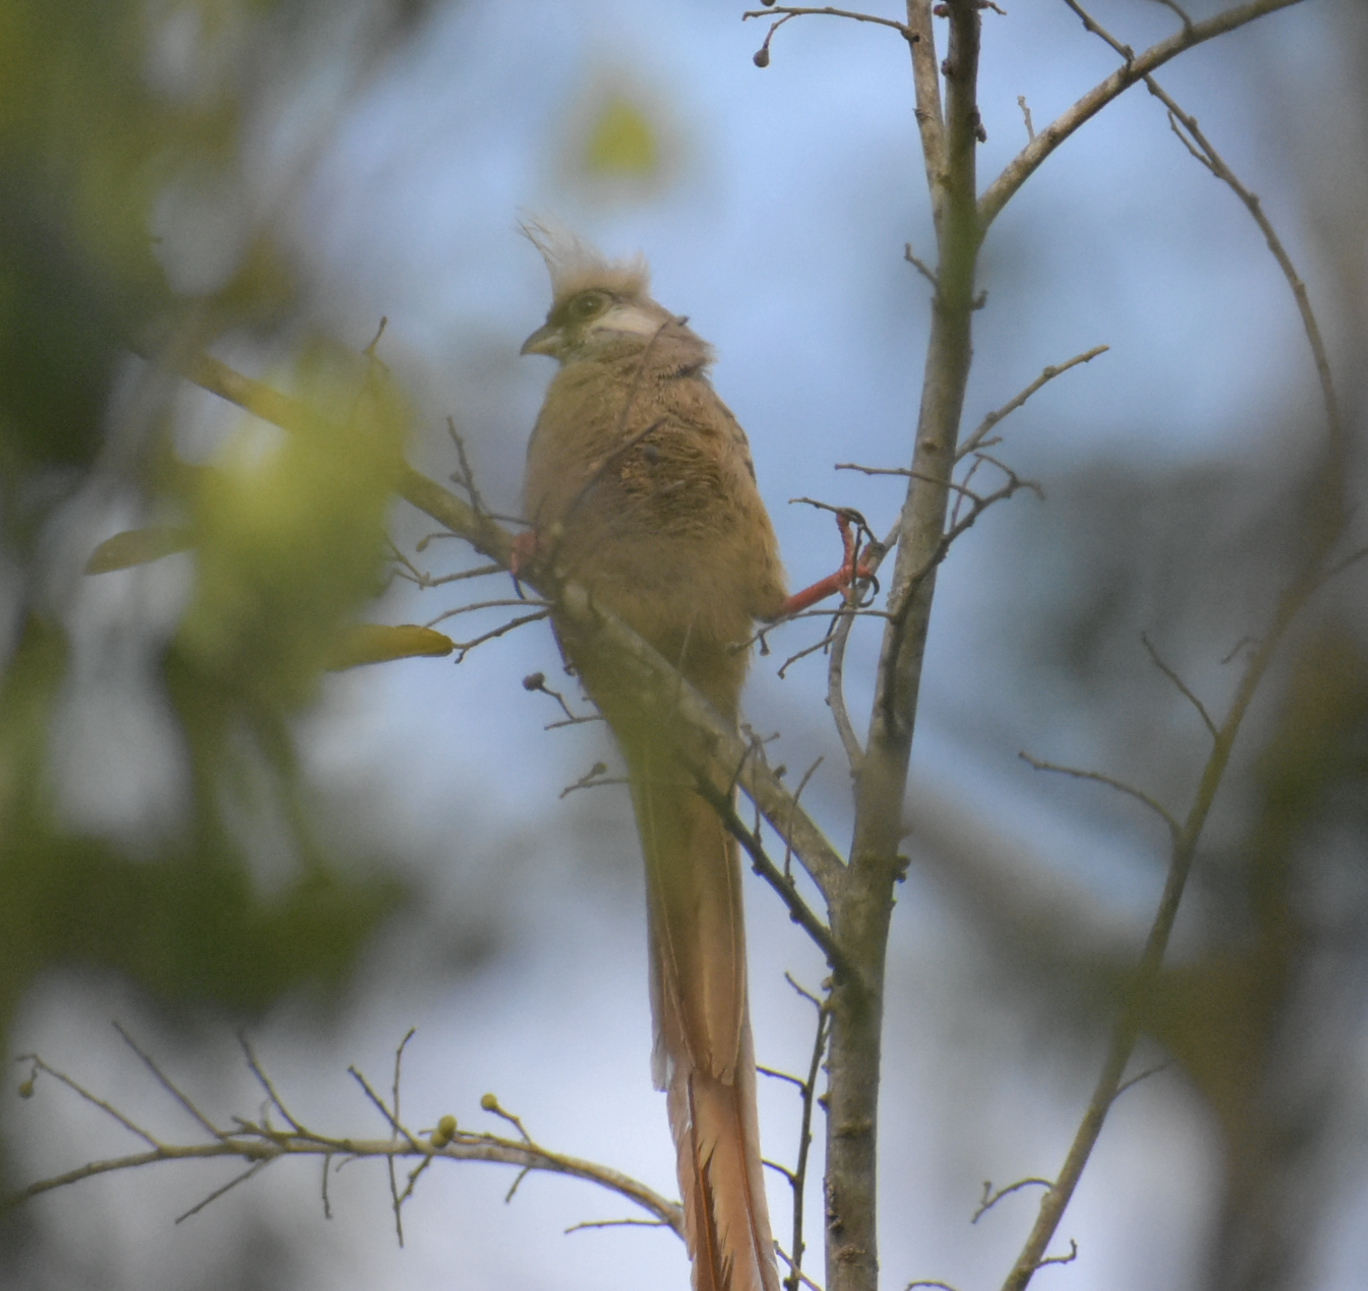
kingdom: Animalia
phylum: Chordata
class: Aves
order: Coliiformes
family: Coliidae
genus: Colius
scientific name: Colius striatus
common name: Speckled mousebird
